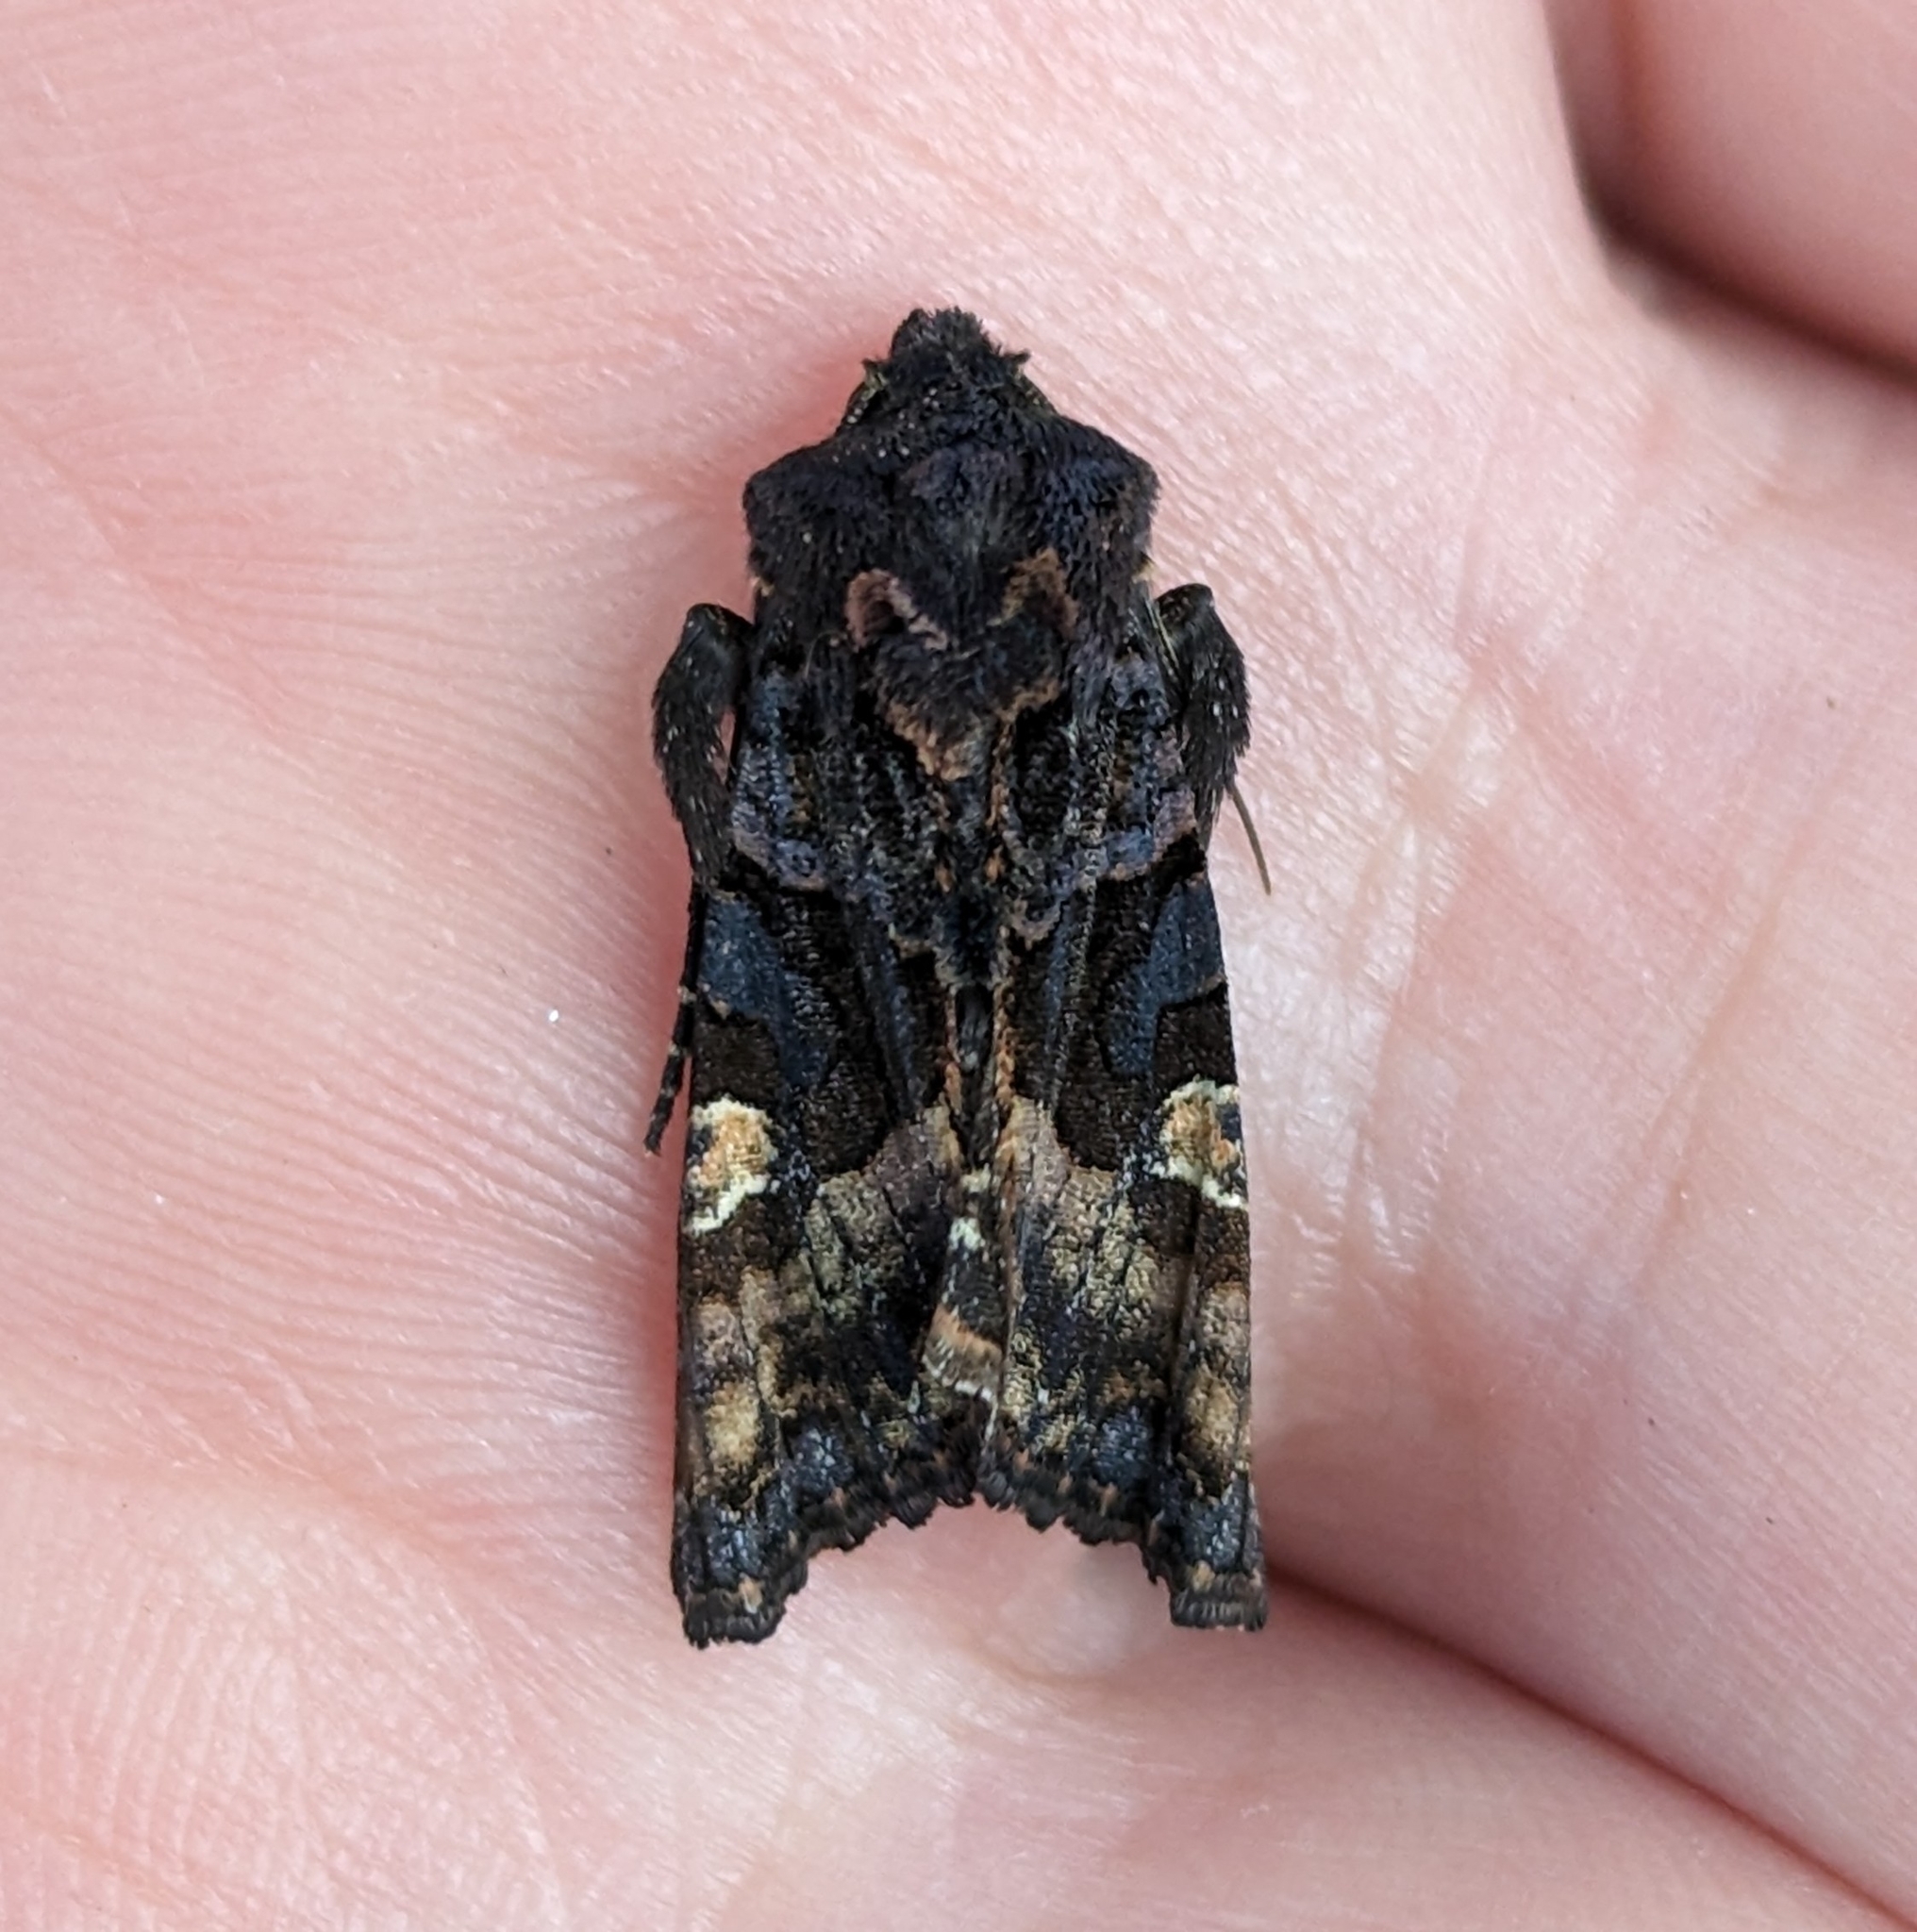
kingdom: Animalia
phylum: Arthropoda
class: Insecta
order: Lepidoptera
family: Noctuidae
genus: Euplexia
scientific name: Euplexia benesimilis
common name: American angle shades
